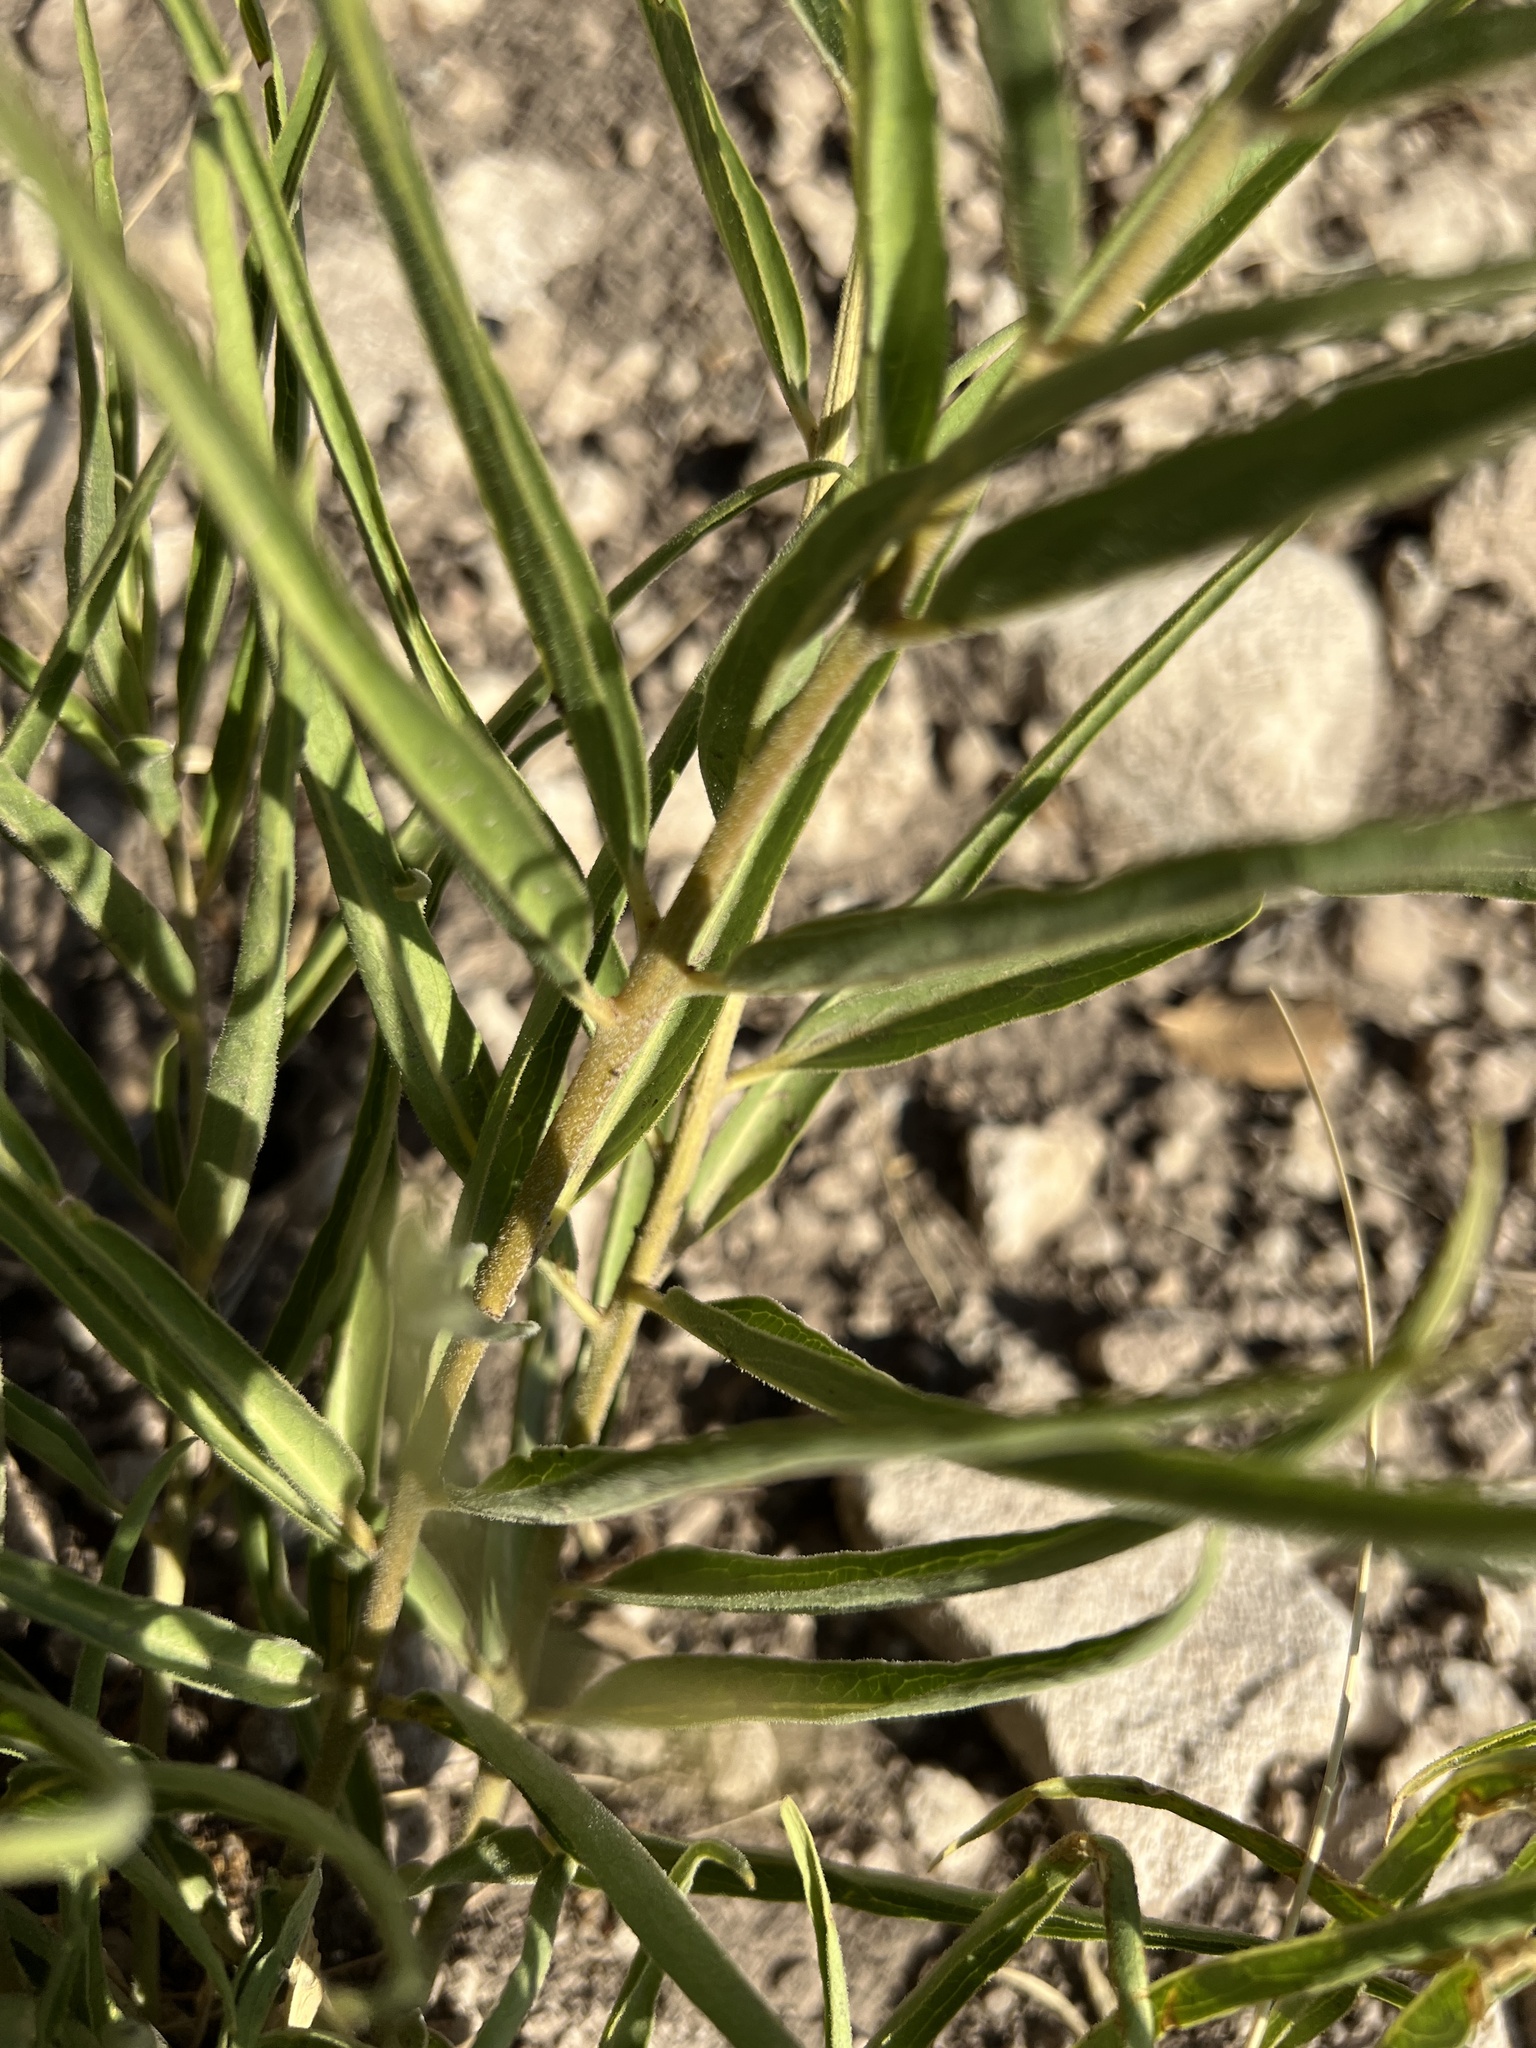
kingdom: Plantae
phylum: Tracheophyta
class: Magnoliopsida
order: Gentianales
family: Apocynaceae
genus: Asclepias
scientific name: Asclepias asperula
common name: Antelope horns
